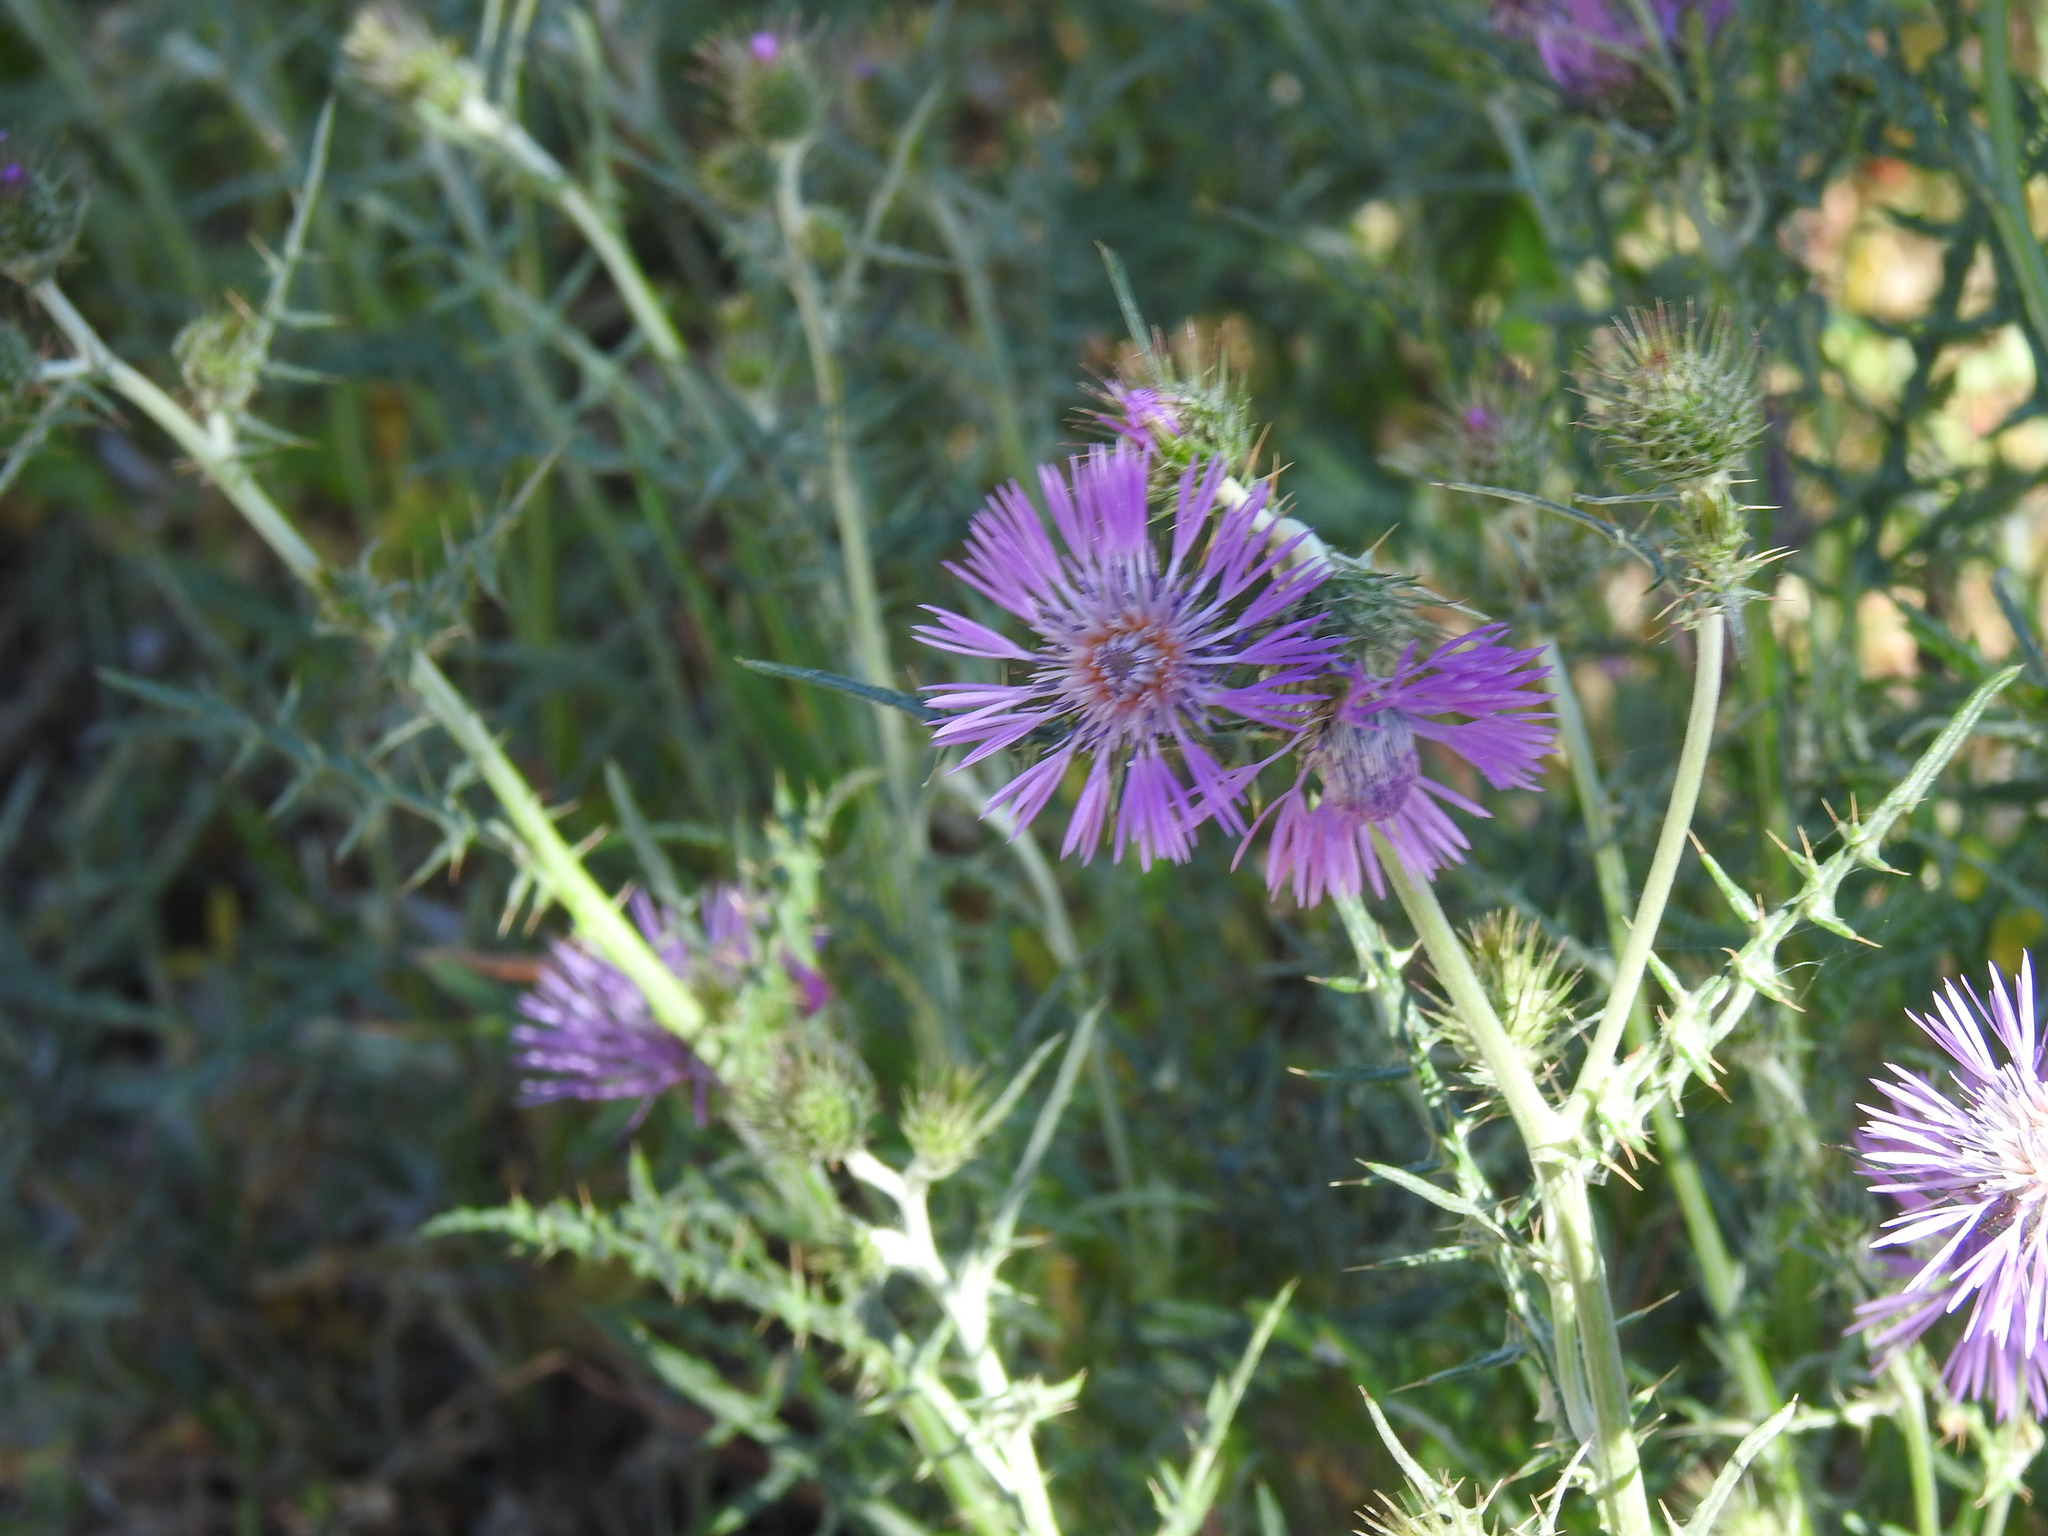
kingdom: Plantae
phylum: Tracheophyta
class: Magnoliopsida
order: Asterales
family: Asteraceae
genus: Galactites
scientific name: Galactites tomentosa
